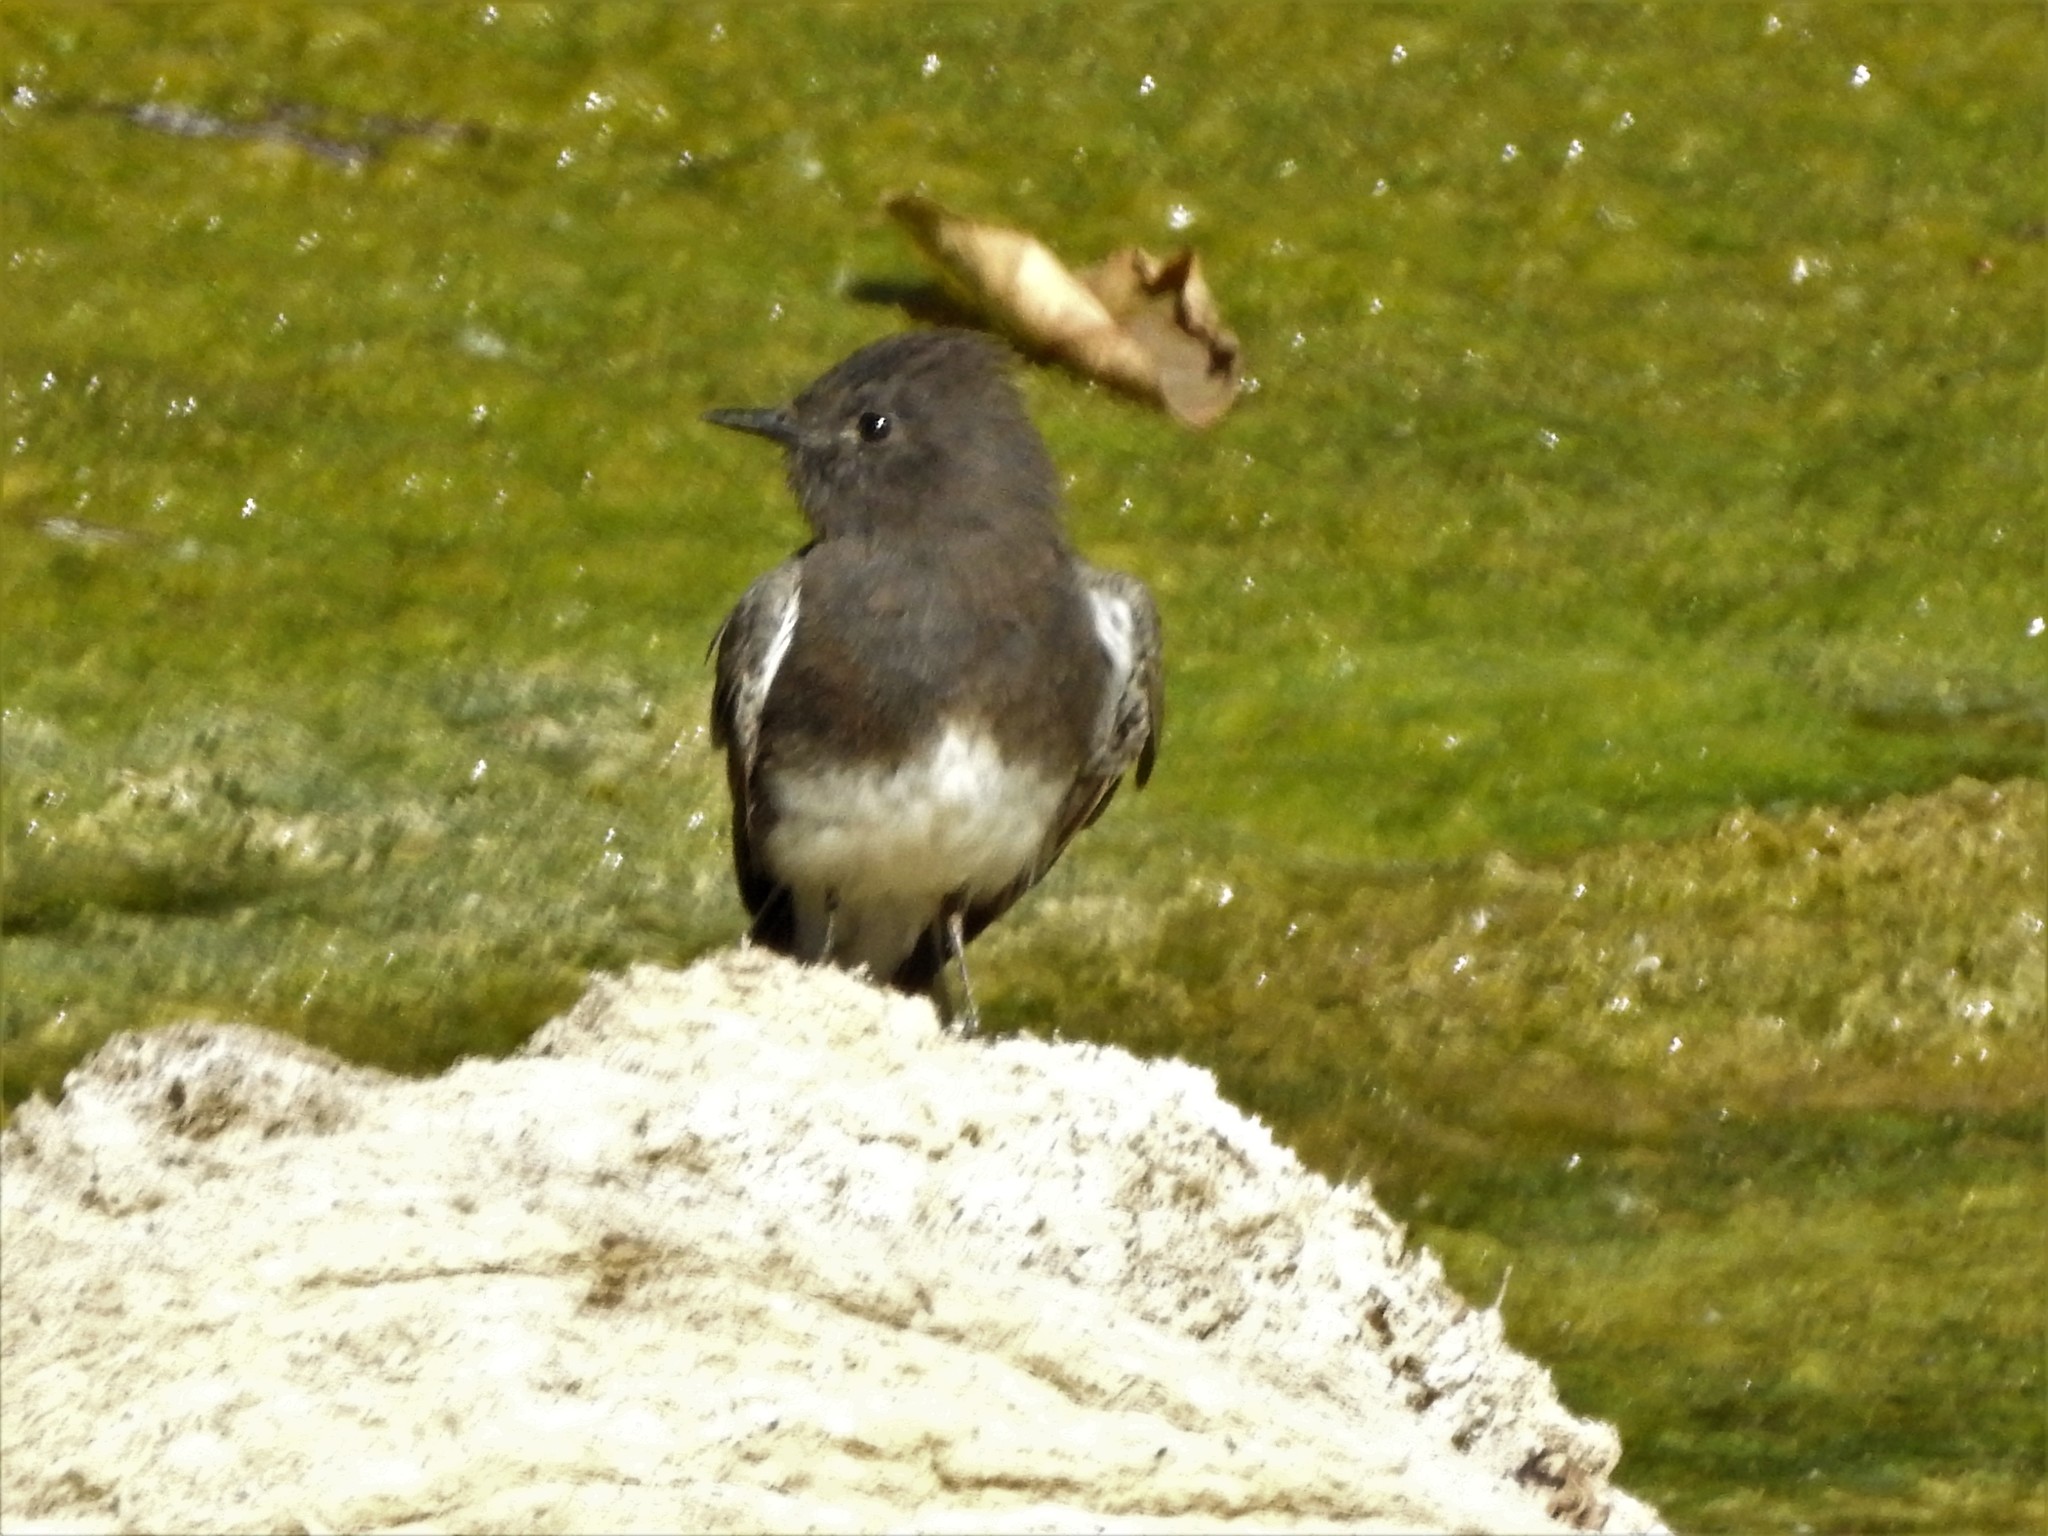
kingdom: Animalia
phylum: Chordata
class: Aves
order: Passeriformes
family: Tyrannidae
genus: Sayornis
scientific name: Sayornis nigricans
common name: Black phoebe
